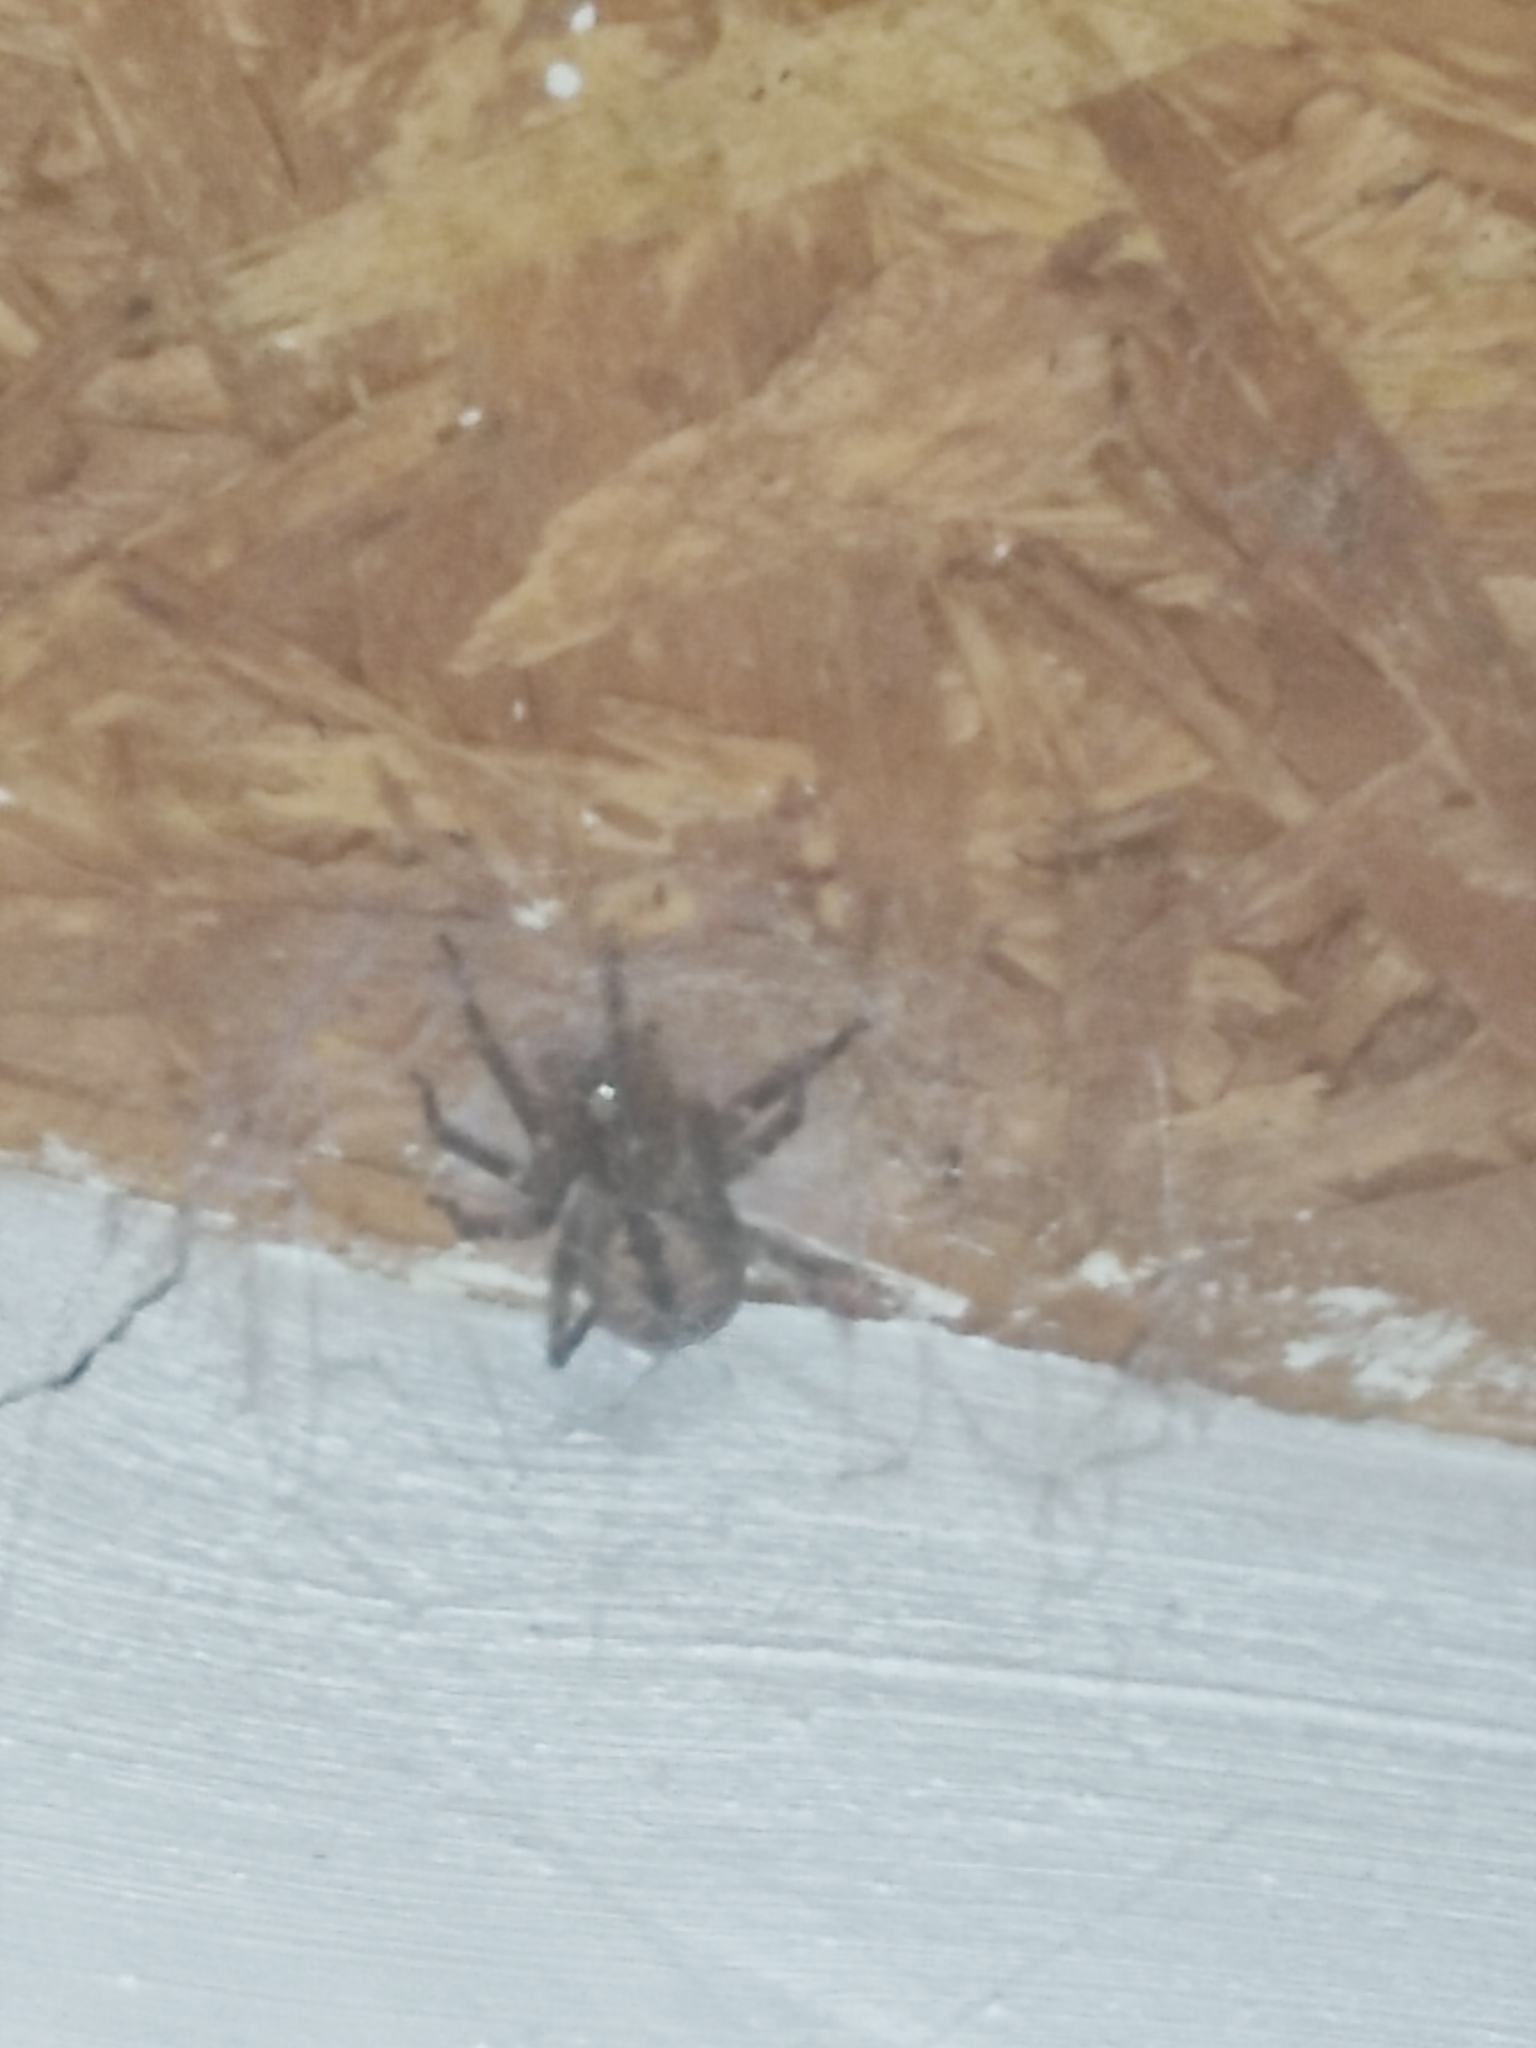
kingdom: Animalia
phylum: Arthropoda
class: Arachnida
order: Araneae
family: Zoropsidae
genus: Zoropsis
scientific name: Zoropsis spinimana
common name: Zoropsid spider
